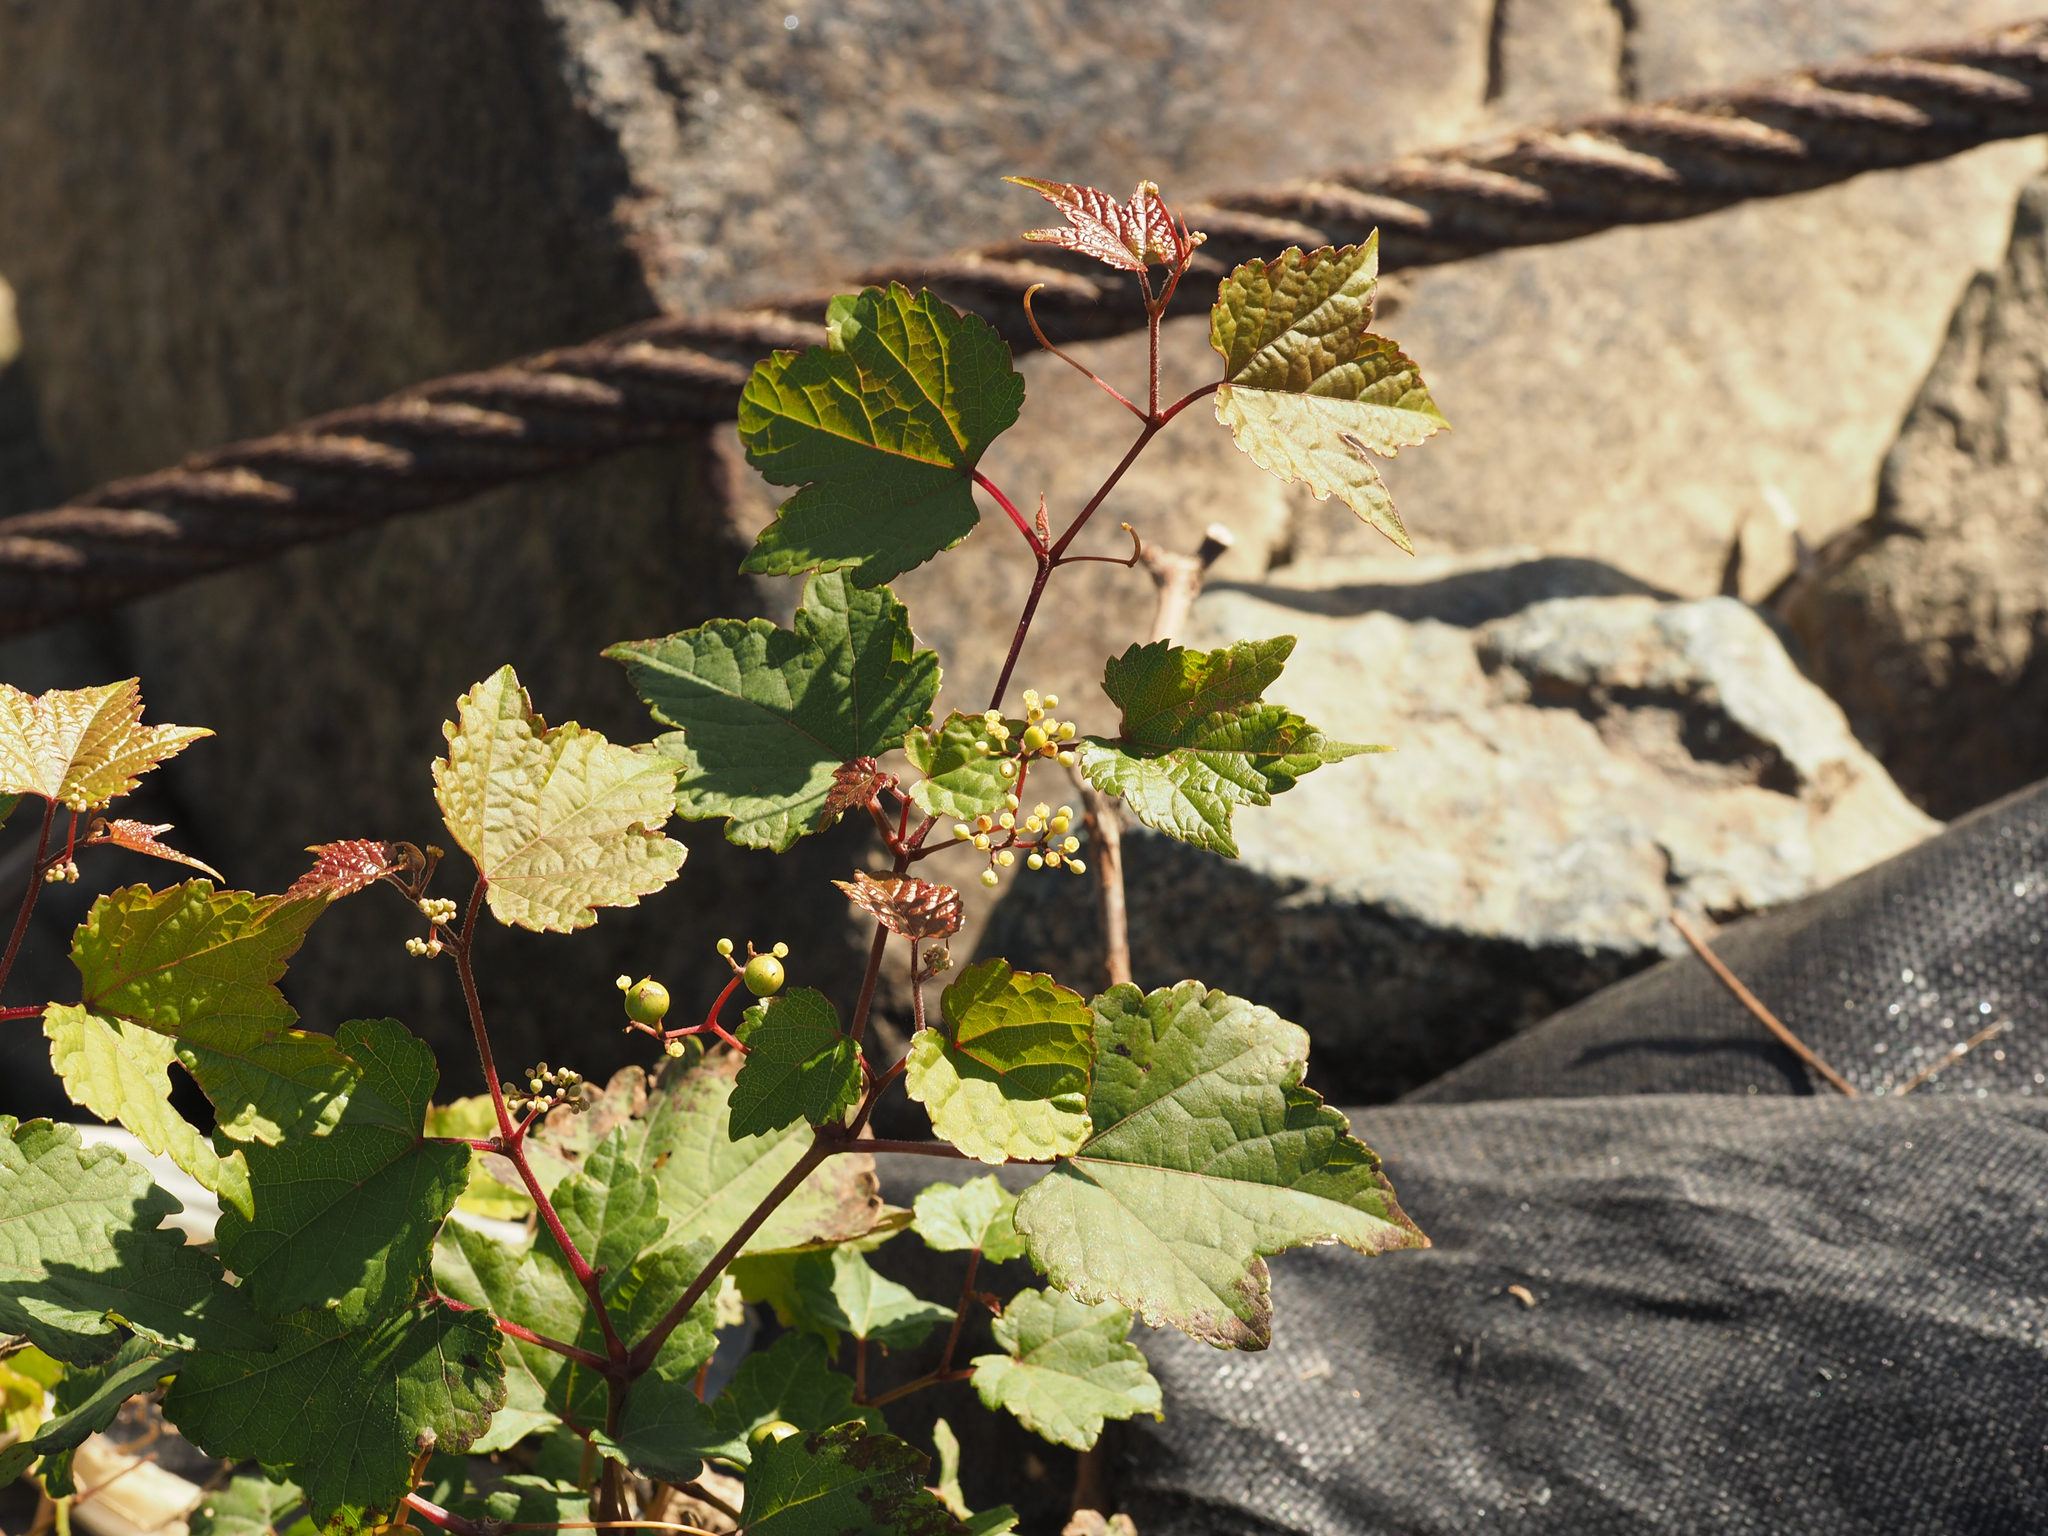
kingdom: Plantae
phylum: Tracheophyta
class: Magnoliopsida
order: Vitales
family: Vitaceae
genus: Ampelopsis
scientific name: Ampelopsis glandulosa
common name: Amur peppervine
